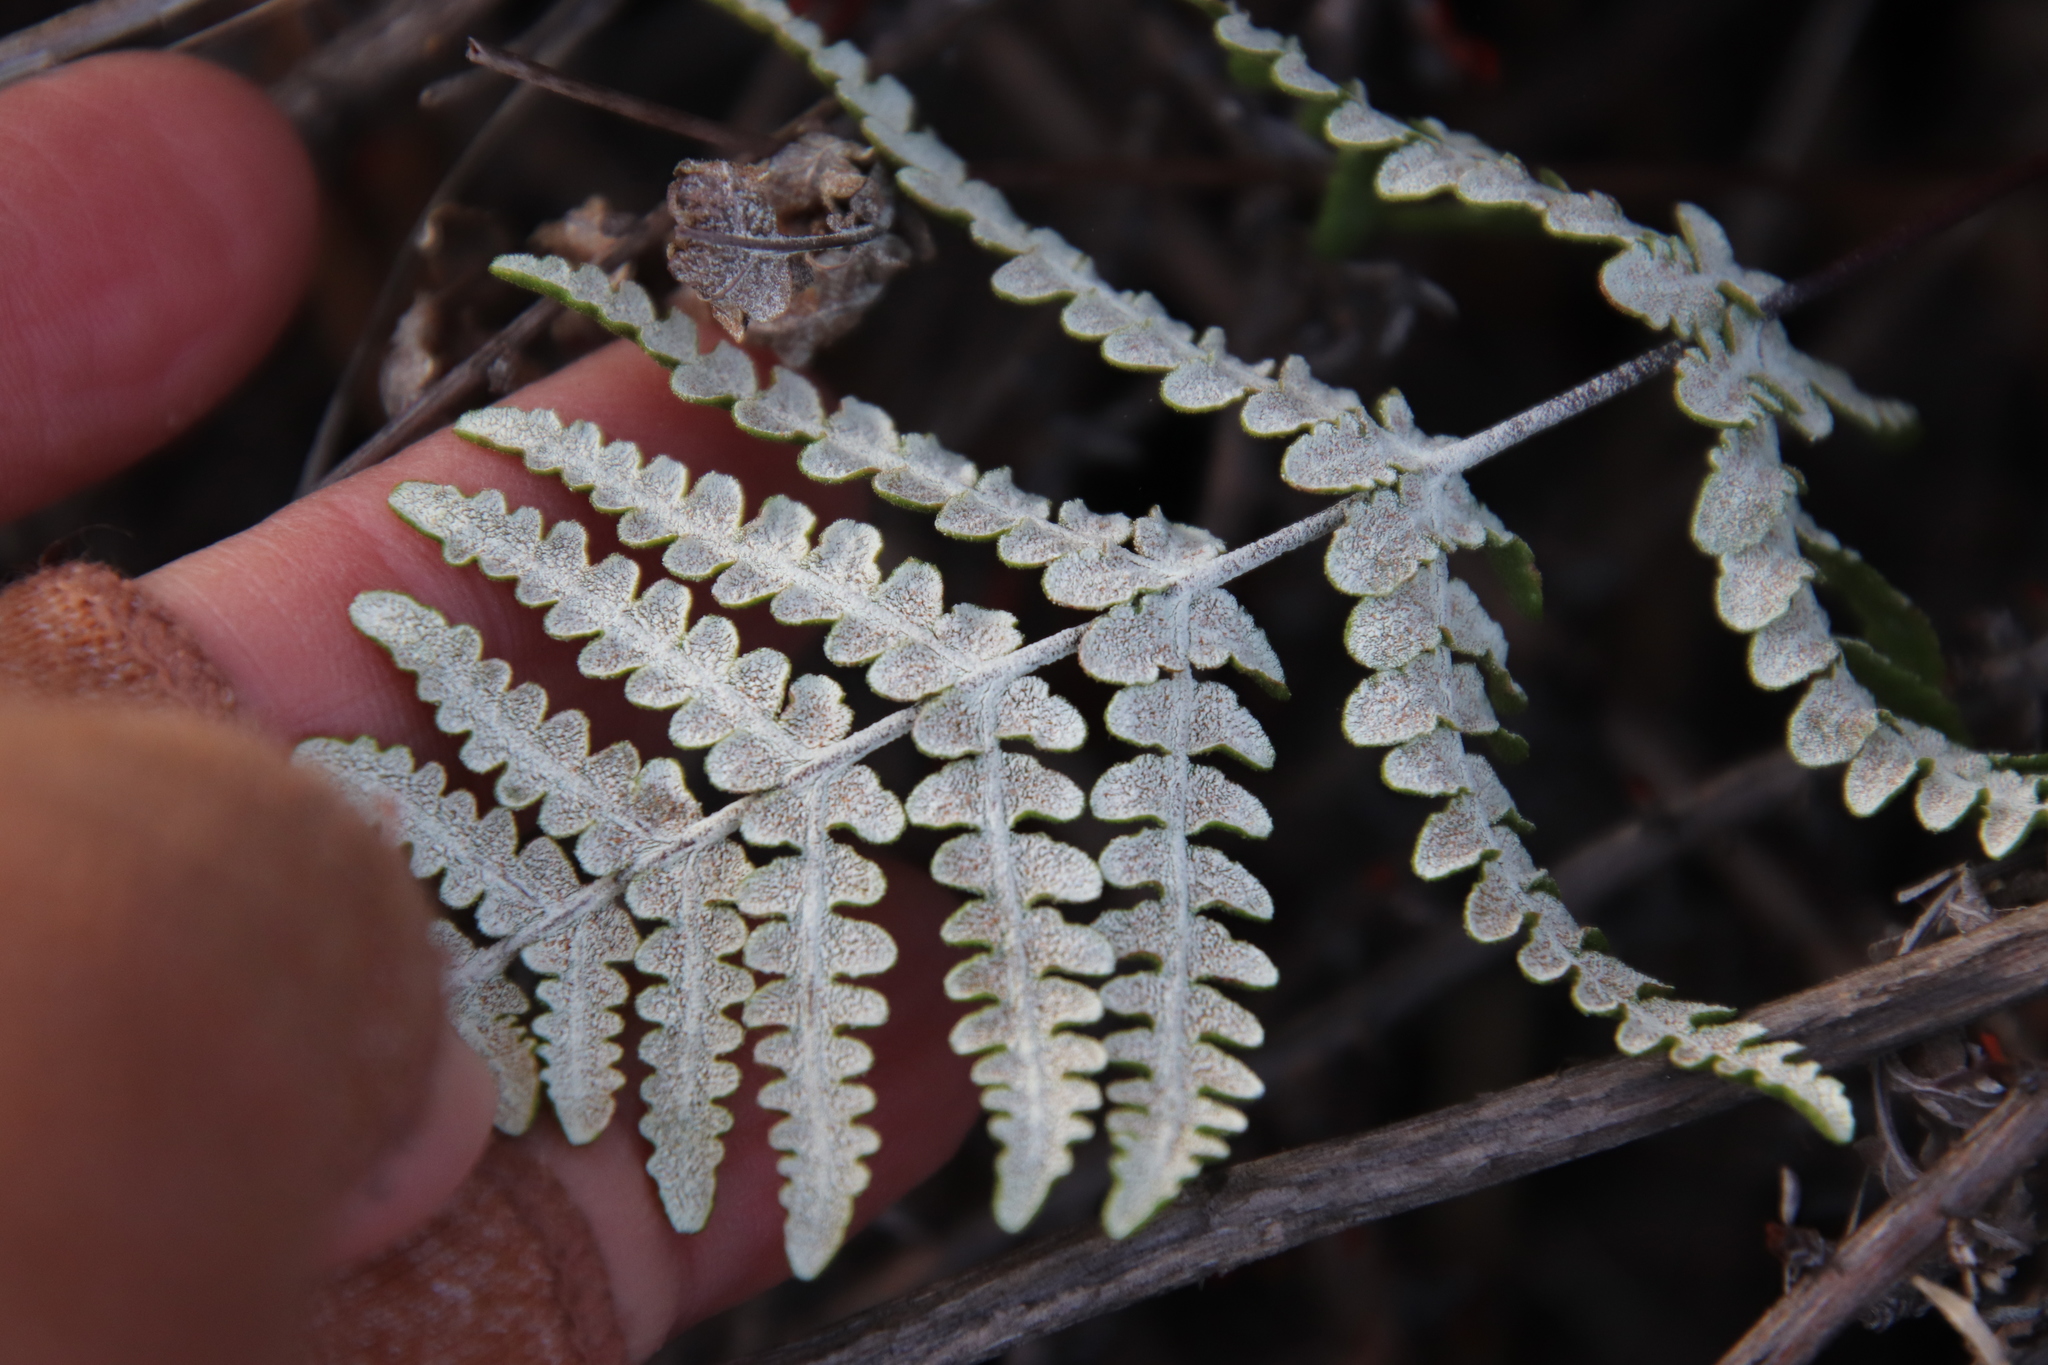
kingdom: Plantae
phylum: Tracheophyta
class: Polypodiopsida
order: Polypodiales
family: Pteridaceae
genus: Pentagramma
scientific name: Pentagramma glanduloviscida
